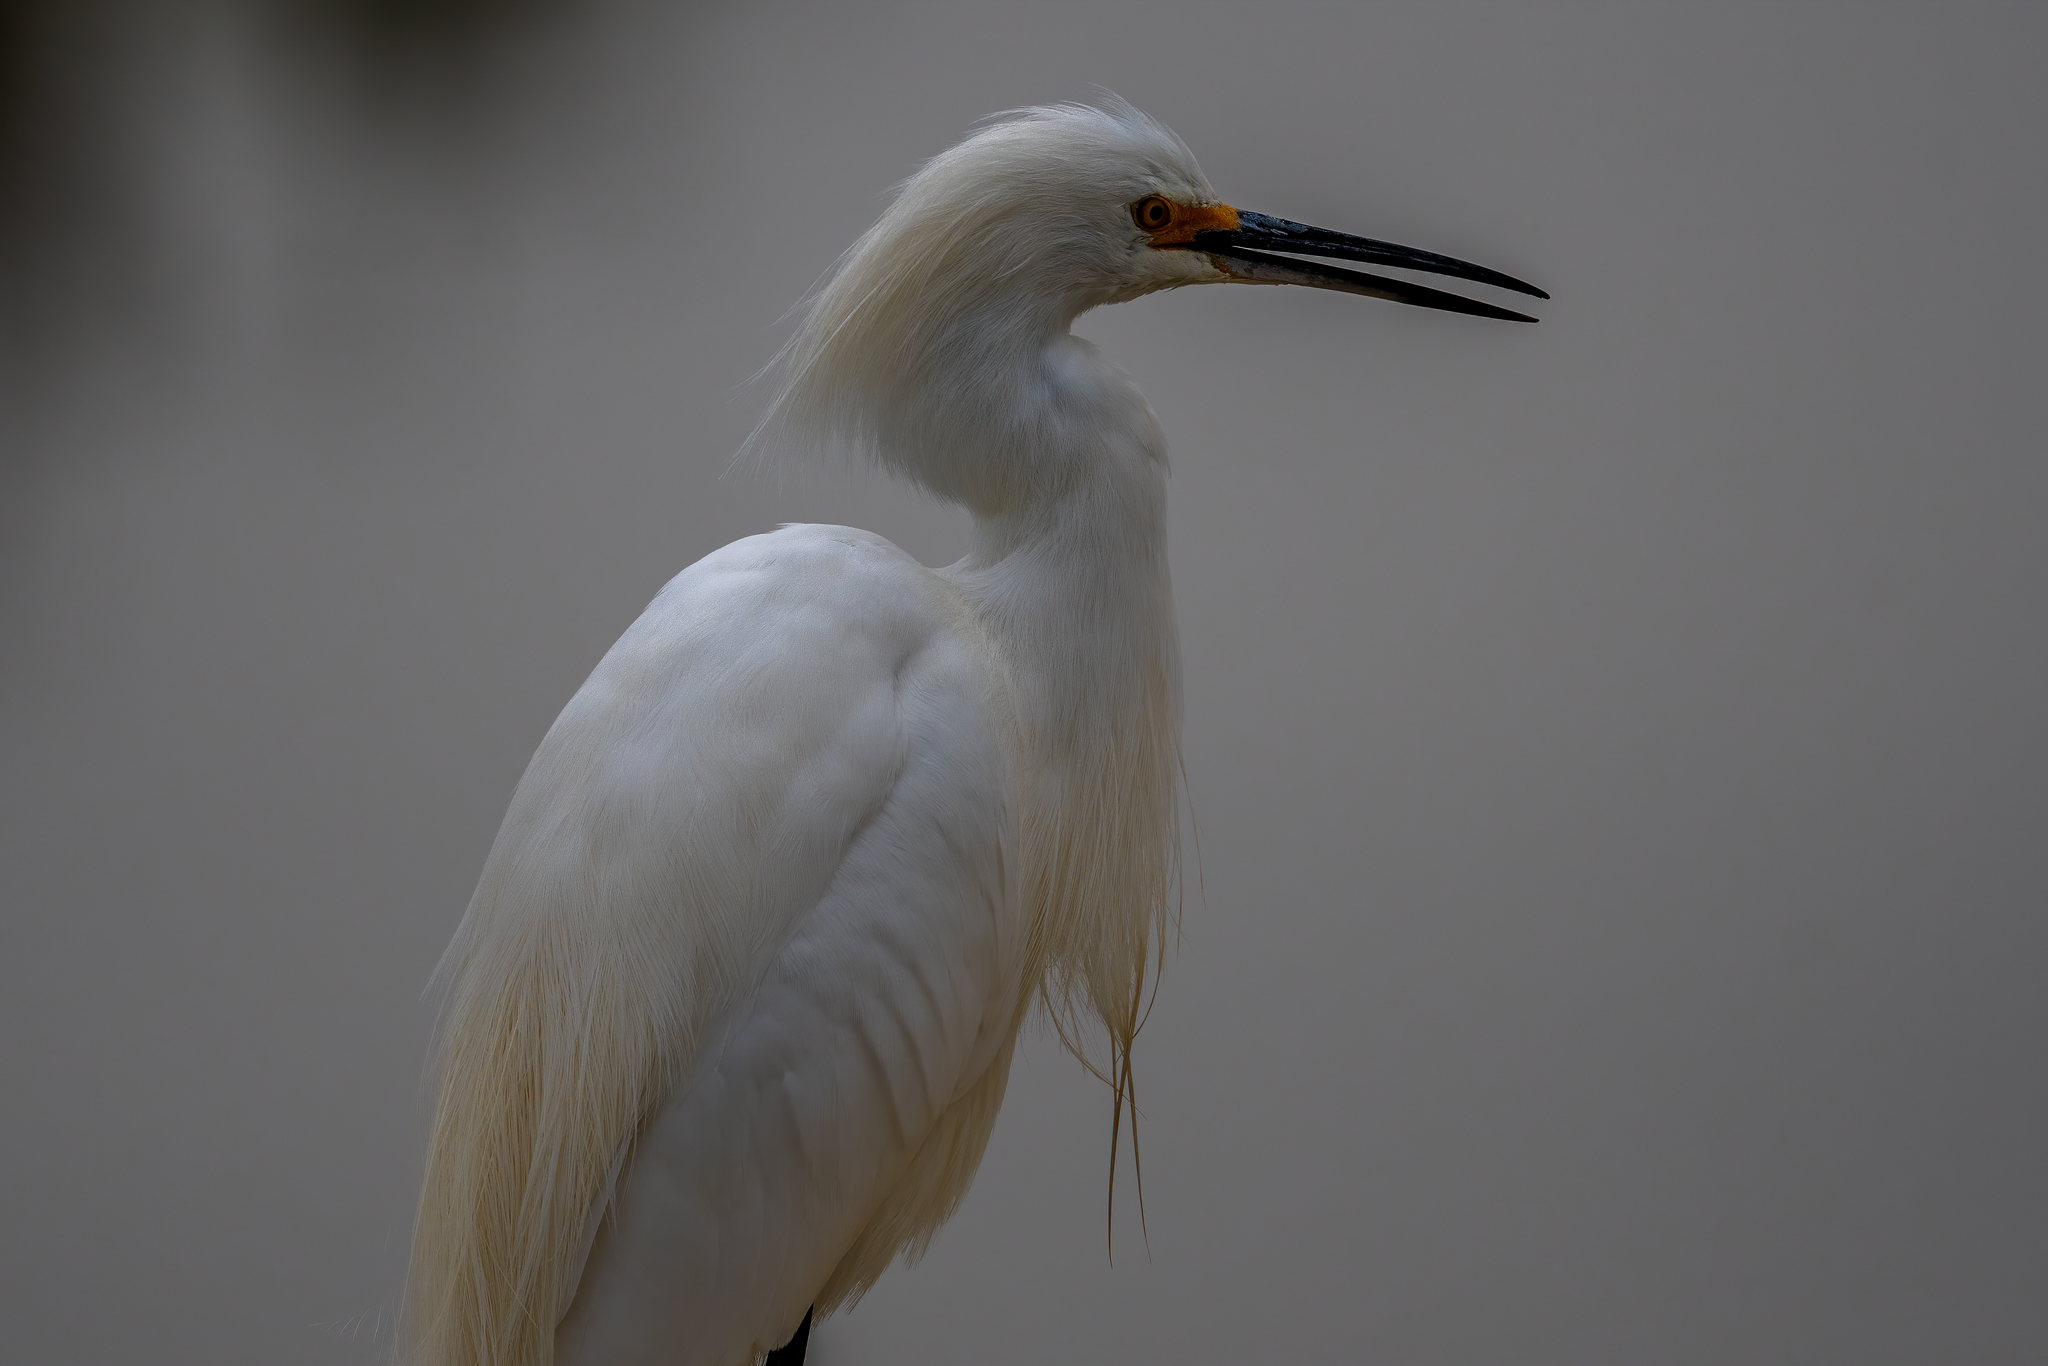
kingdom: Animalia
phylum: Chordata
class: Aves
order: Pelecaniformes
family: Ardeidae
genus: Egretta
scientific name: Egretta thula
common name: Snowy egret
